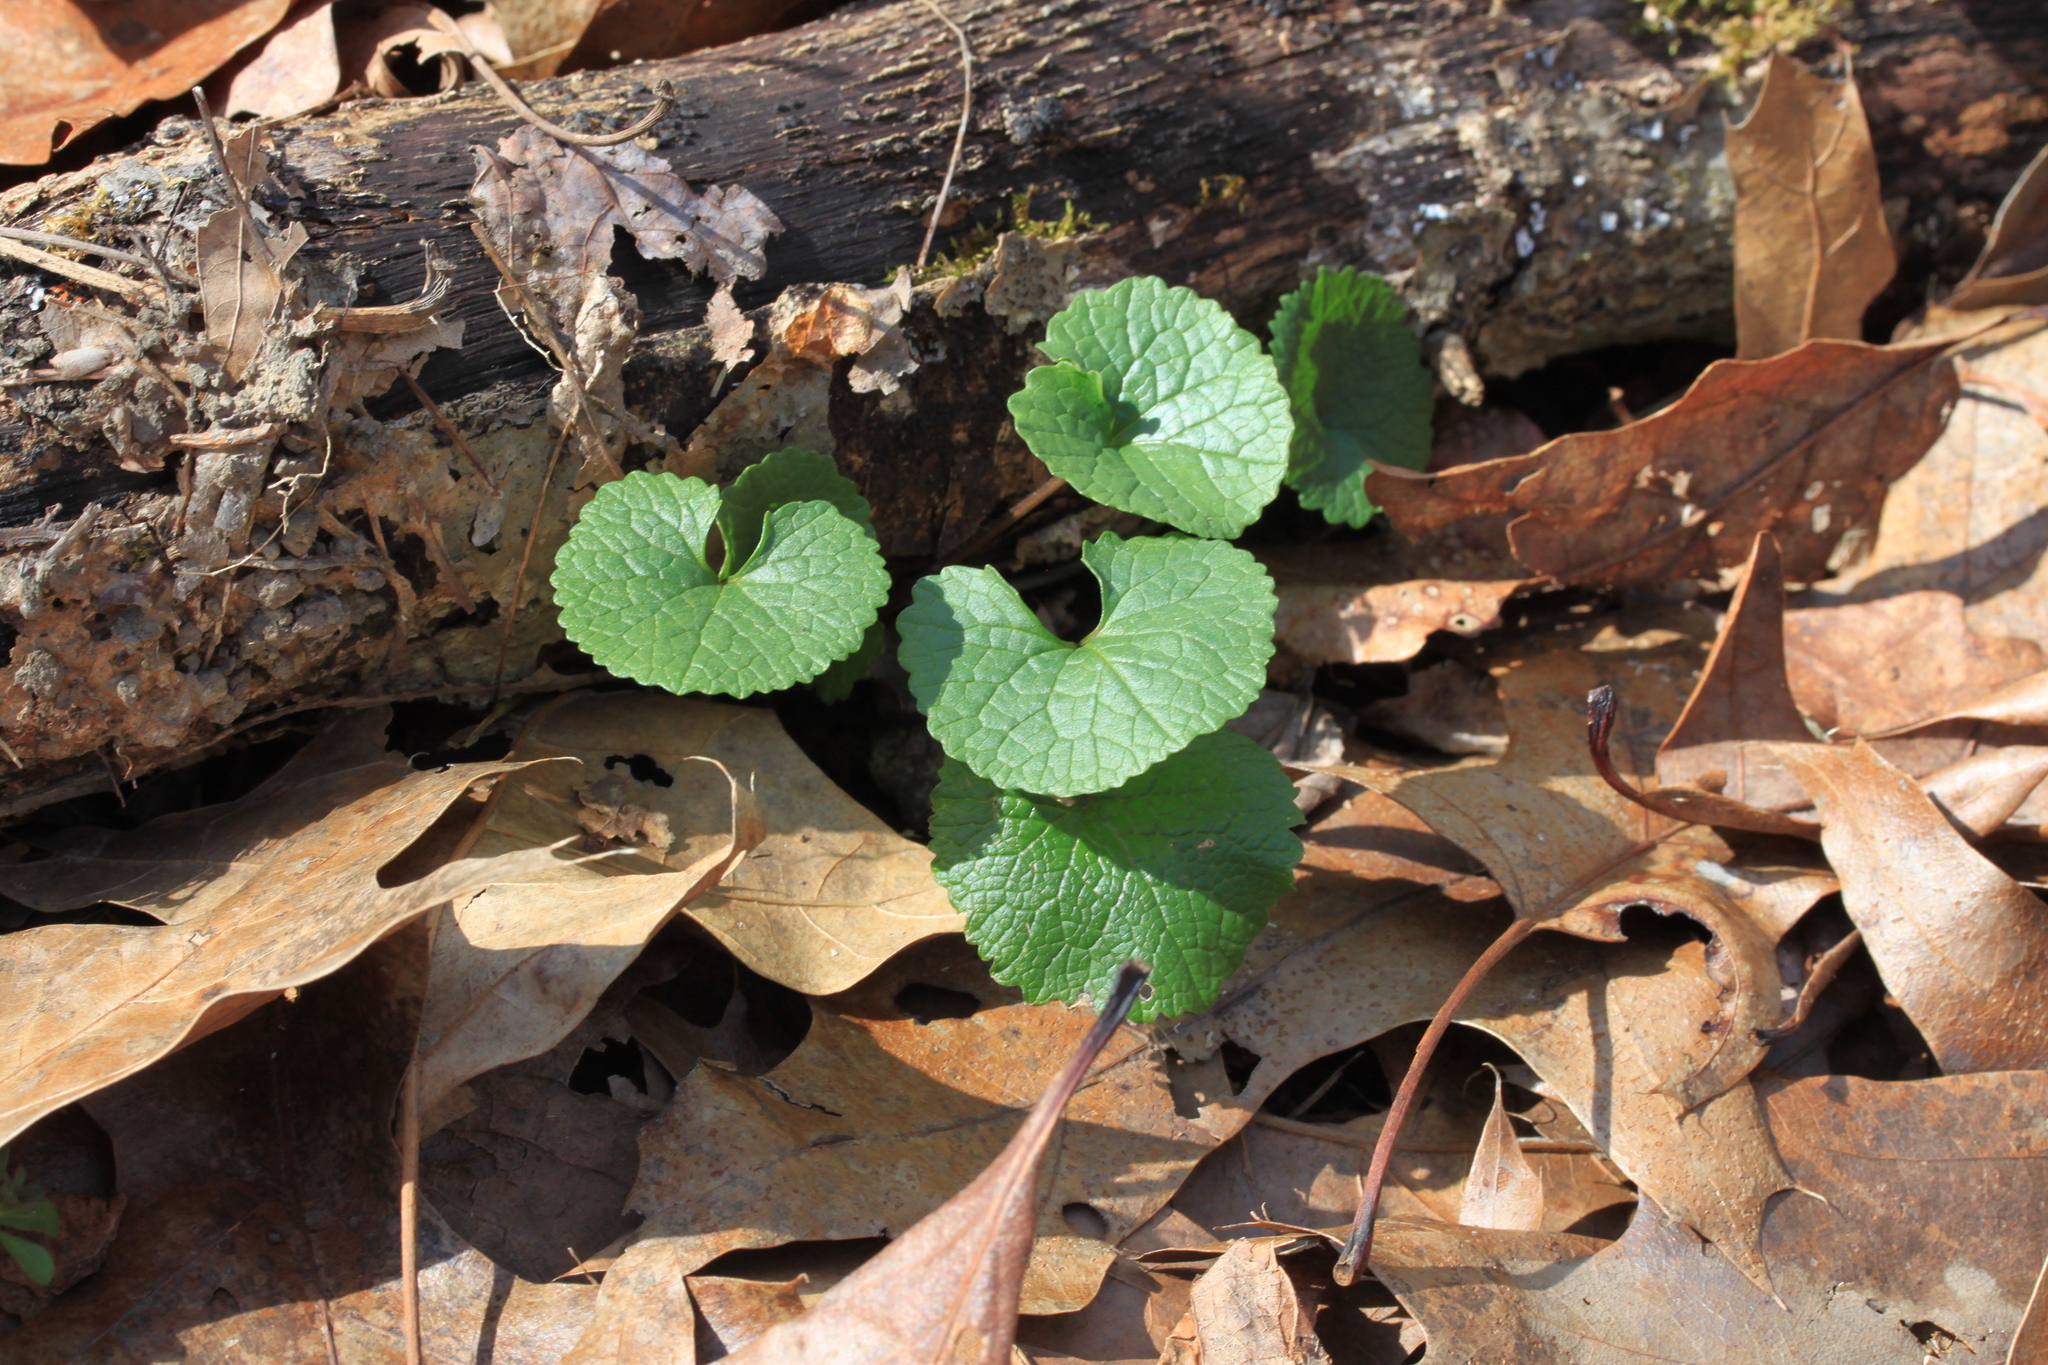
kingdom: Plantae
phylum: Tracheophyta
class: Magnoliopsida
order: Brassicales
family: Brassicaceae
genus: Alliaria
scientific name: Alliaria petiolata
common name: Garlic mustard
